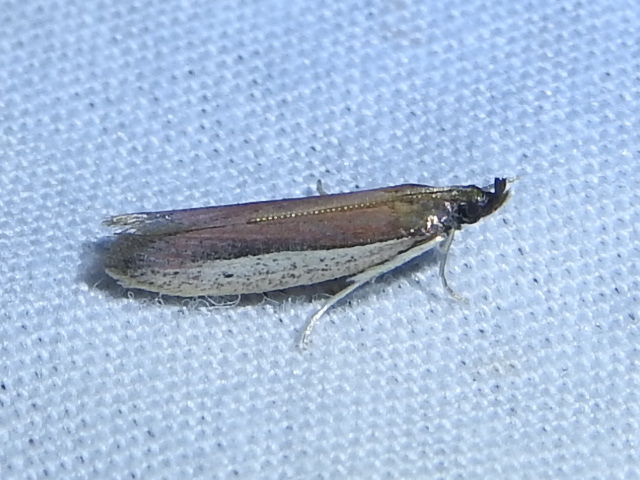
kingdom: Animalia
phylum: Arthropoda
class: Insecta
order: Lepidoptera
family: Pyralidae
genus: Tampa
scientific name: Tampa dimediatella
